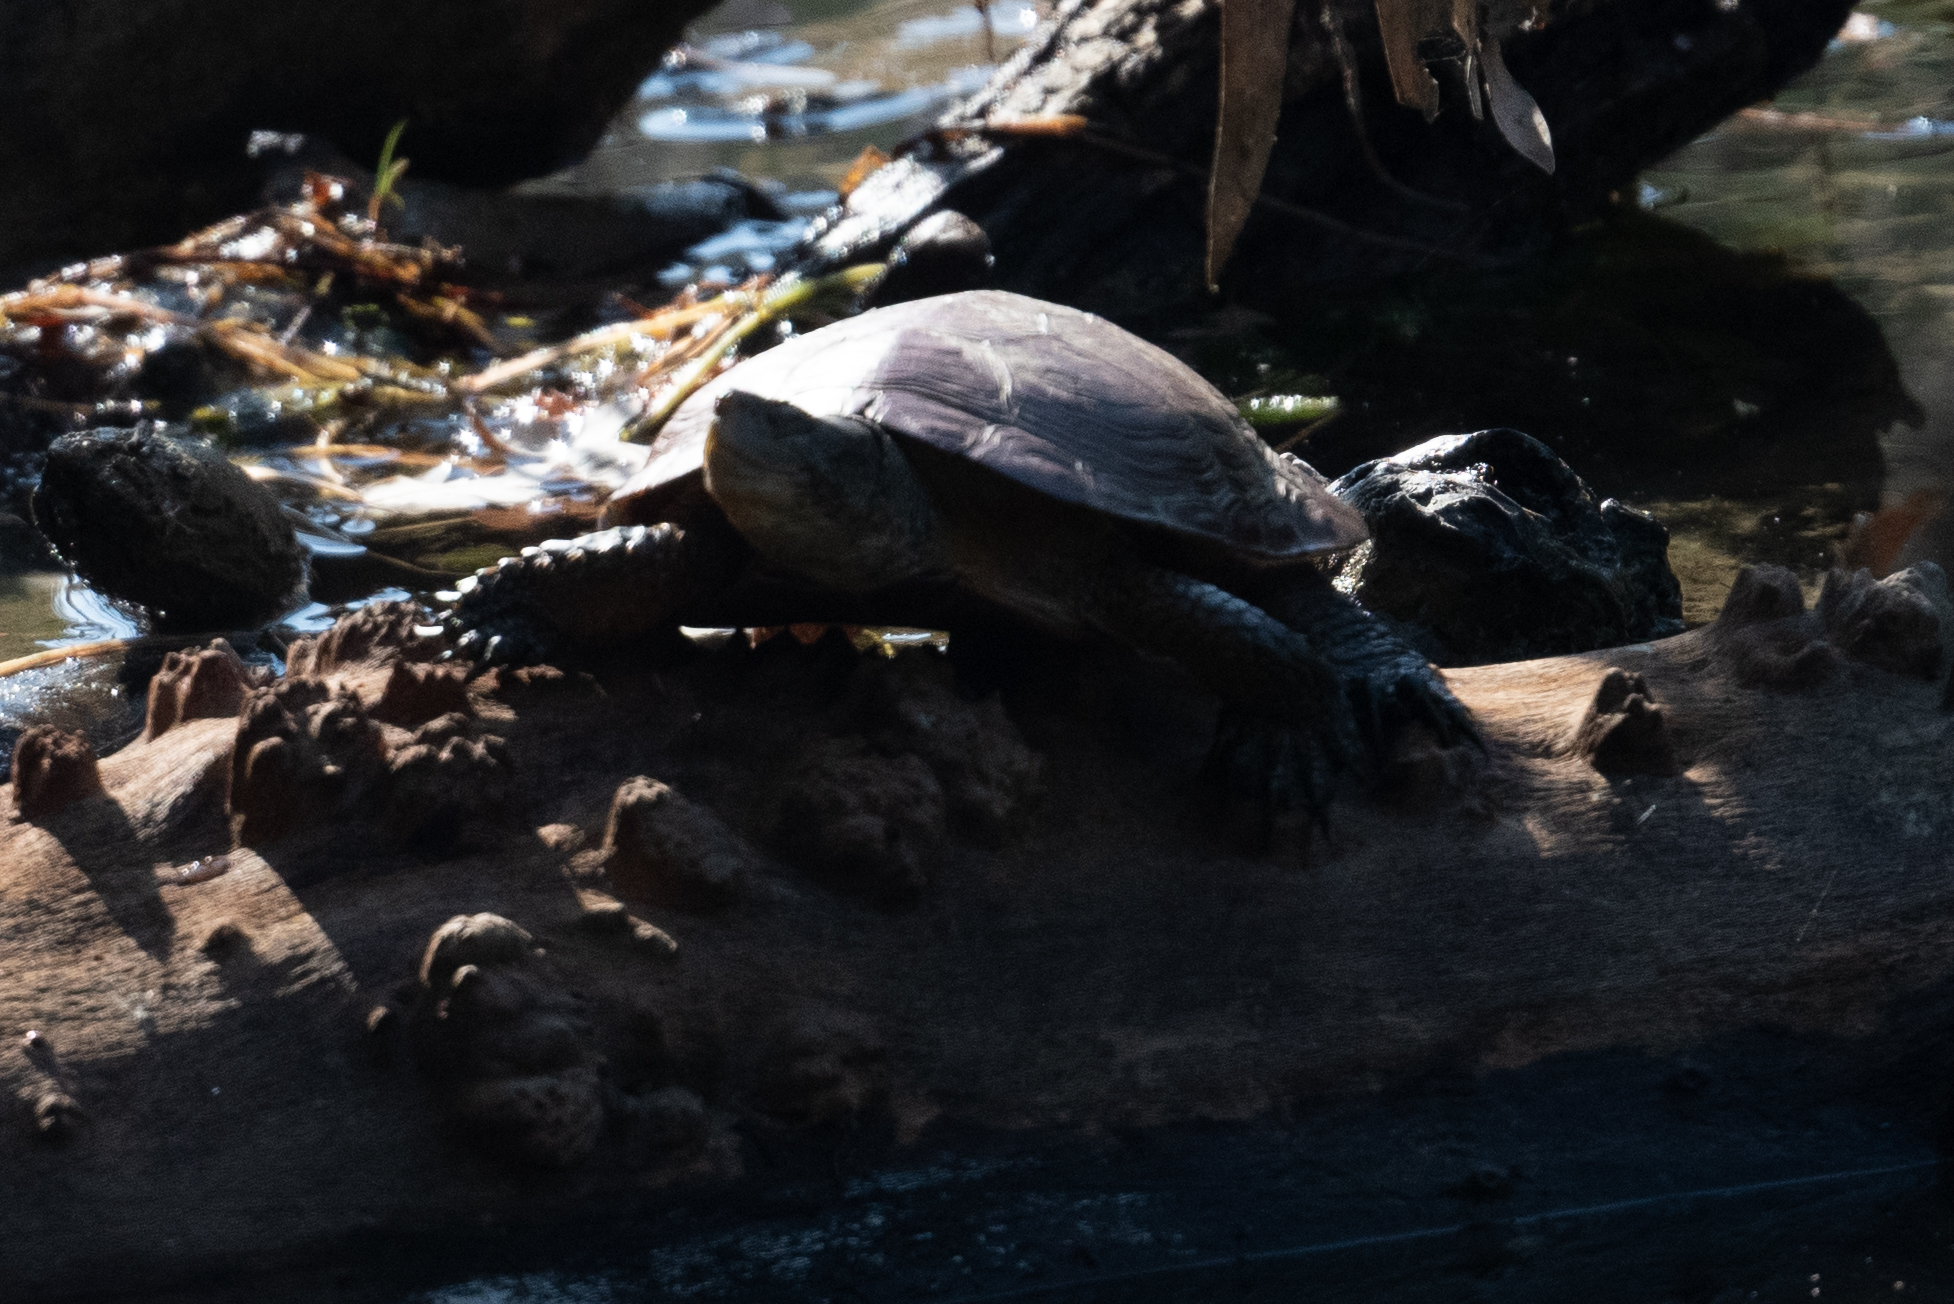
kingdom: Animalia
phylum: Chordata
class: Testudines
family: Emydidae
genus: Actinemys
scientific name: Actinemys marmorata
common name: Western pond turtle
